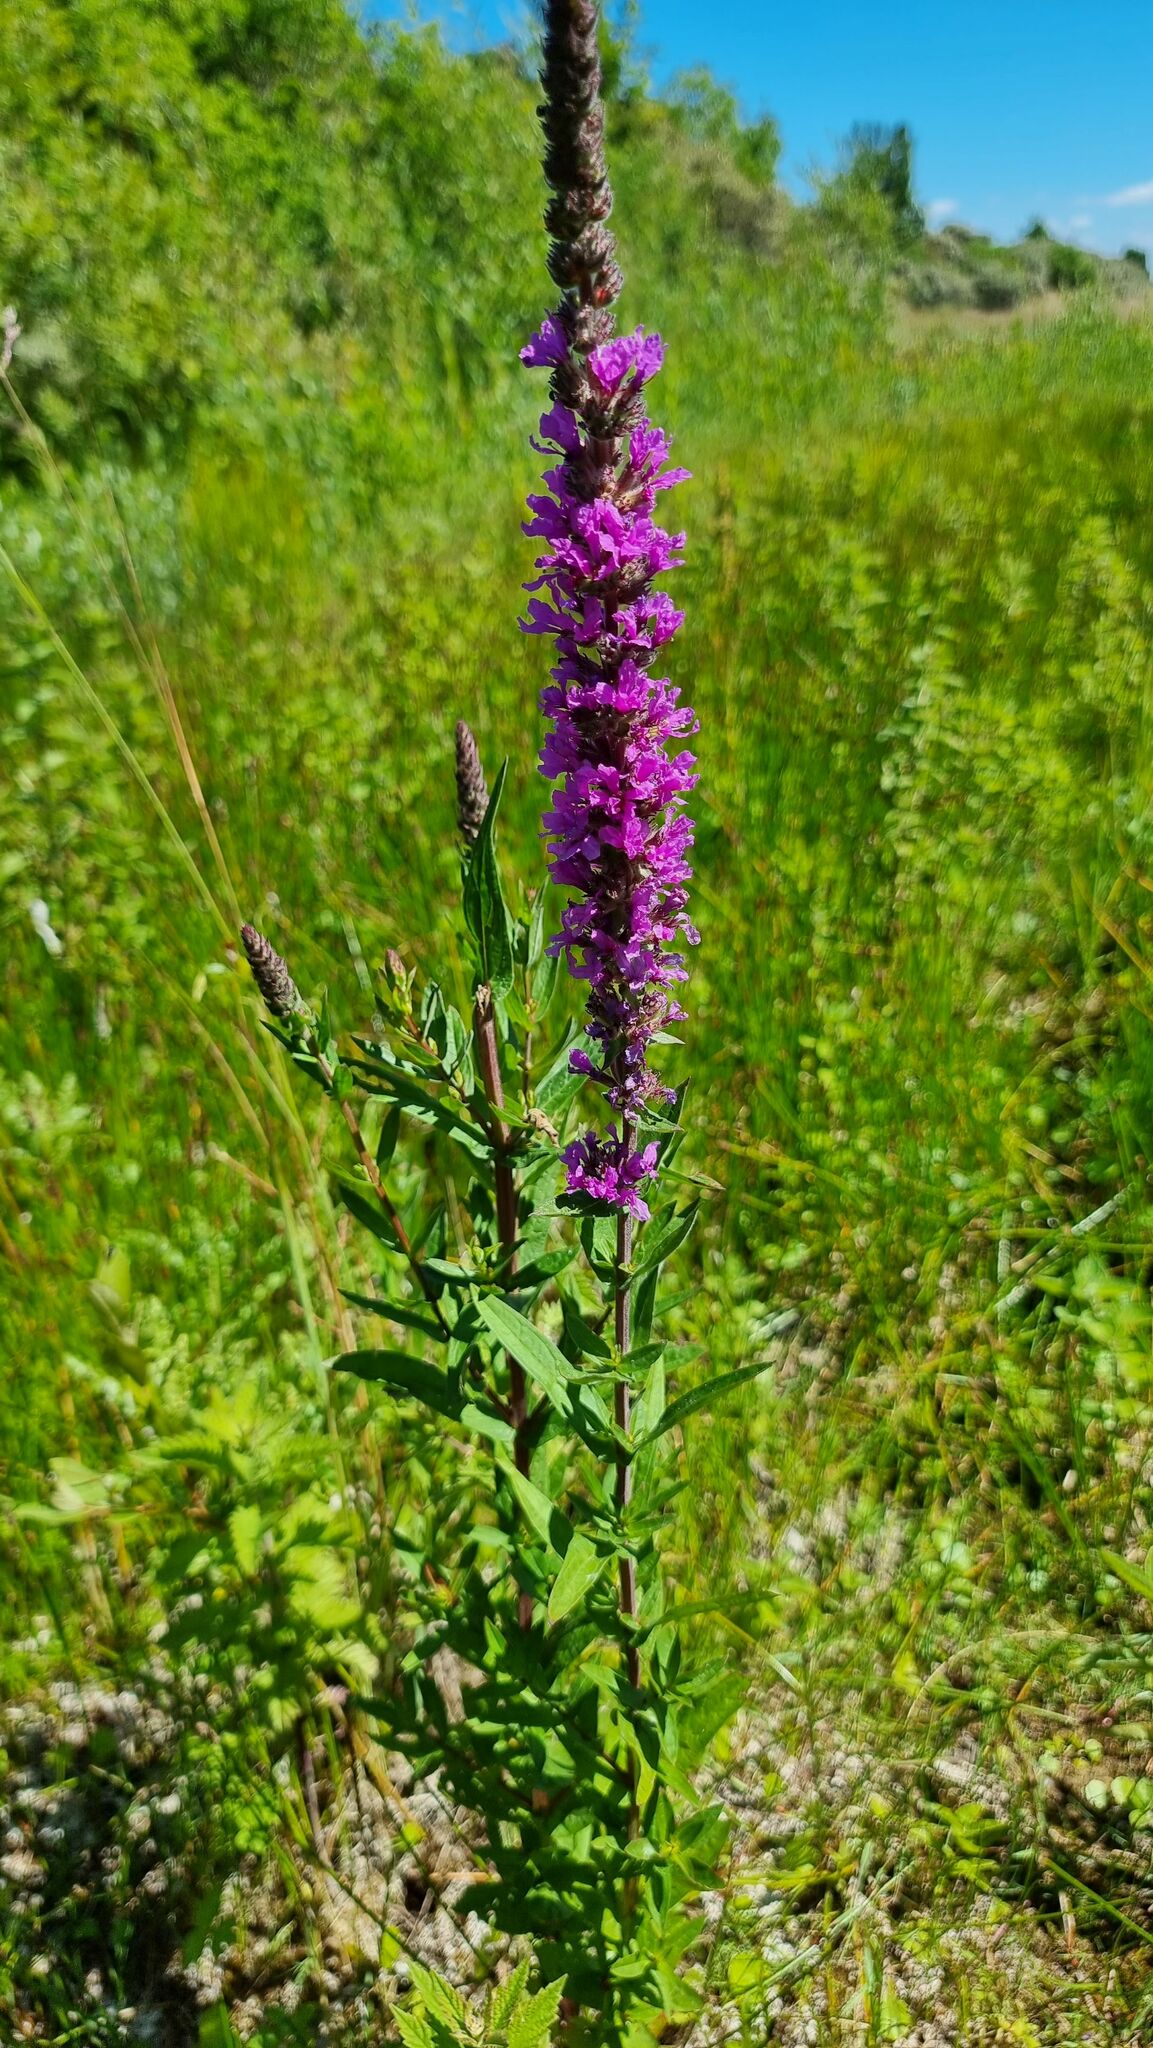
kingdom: Plantae
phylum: Tracheophyta
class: Magnoliopsida
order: Myrtales
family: Lythraceae
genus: Lythrum
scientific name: Lythrum salicaria
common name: Purple loosestrife
